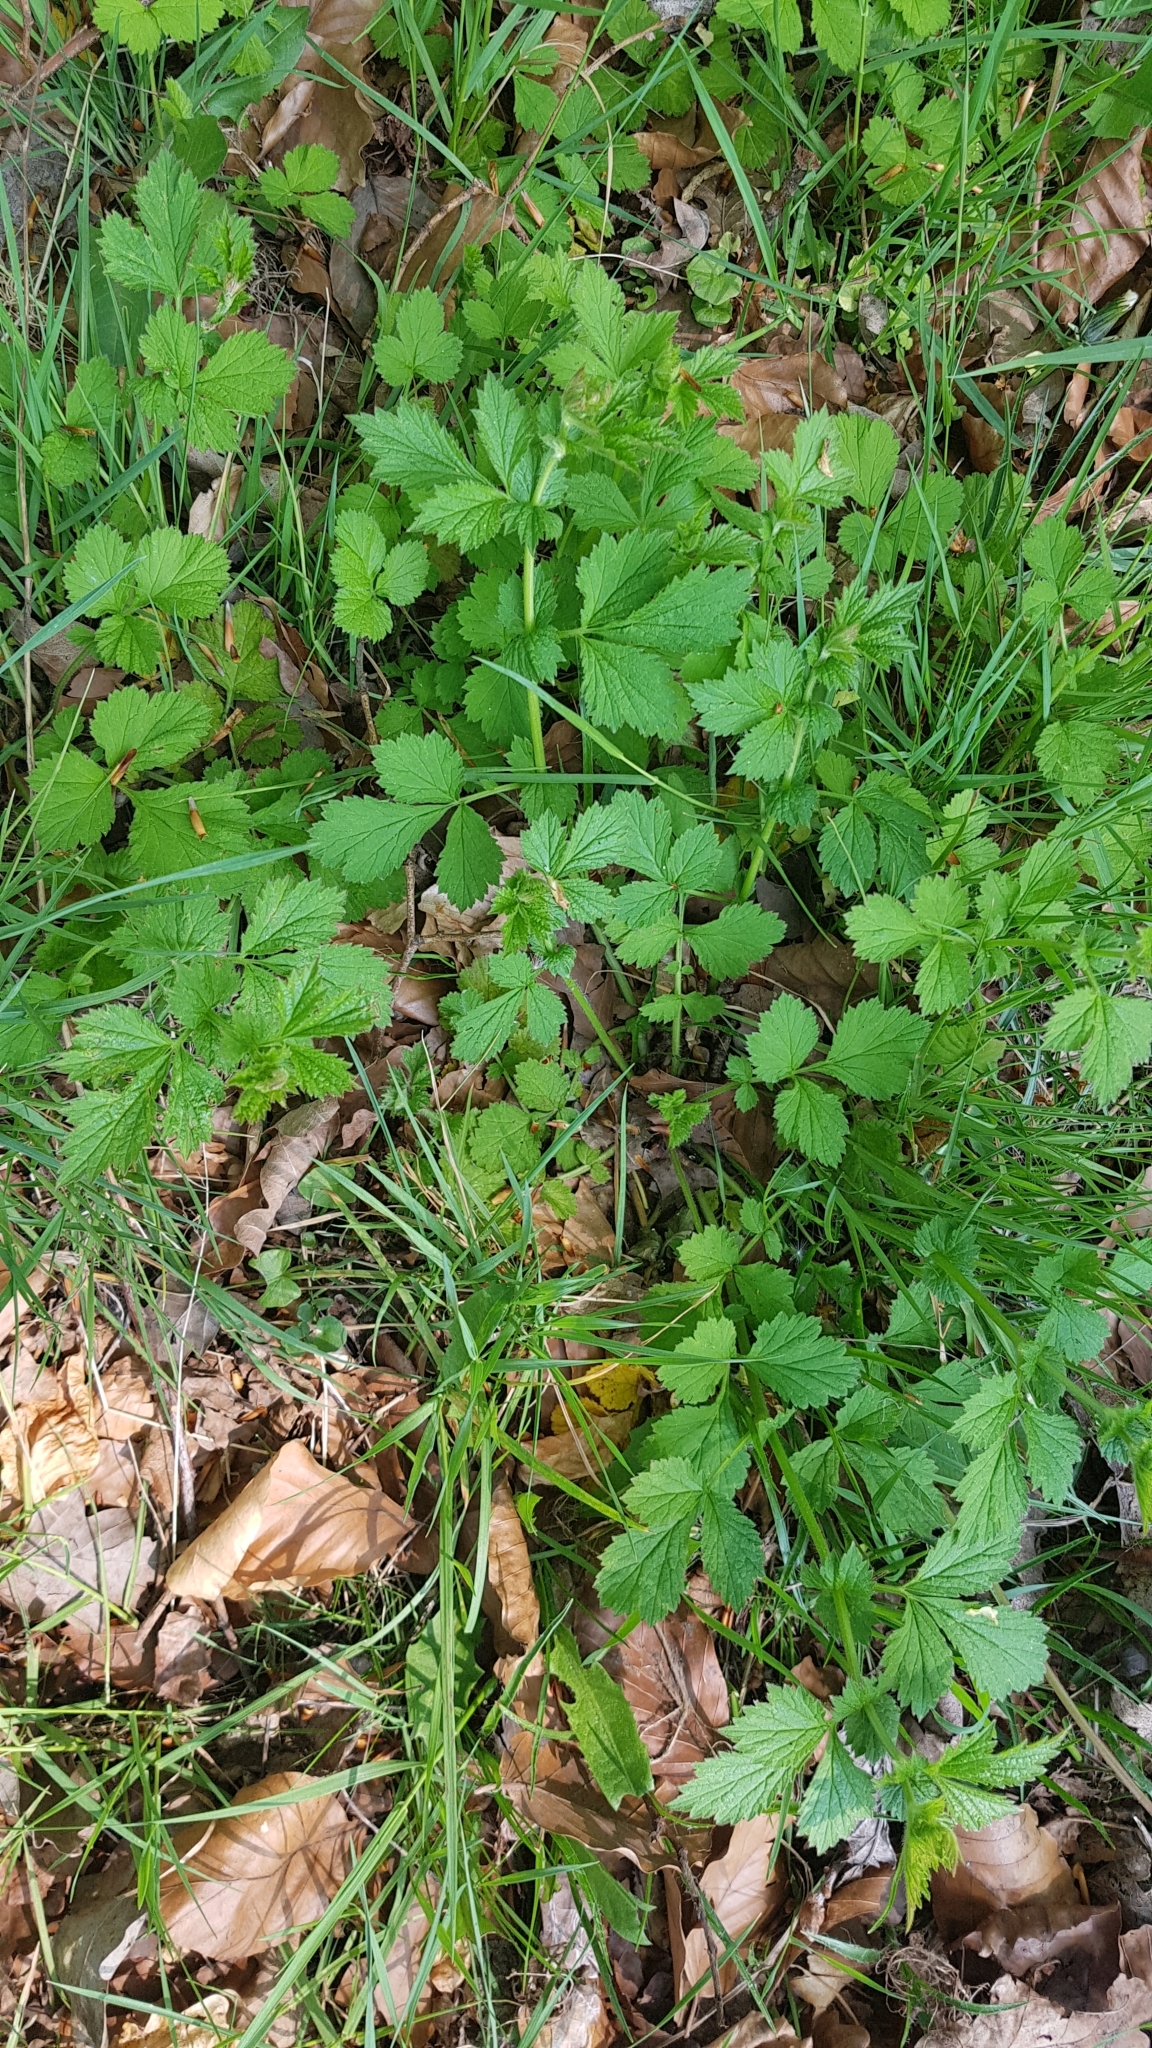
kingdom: Plantae
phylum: Tracheophyta
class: Magnoliopsida
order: Rosales
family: Rosaceae
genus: Geum
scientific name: Geum urbanum
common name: Wood avens
